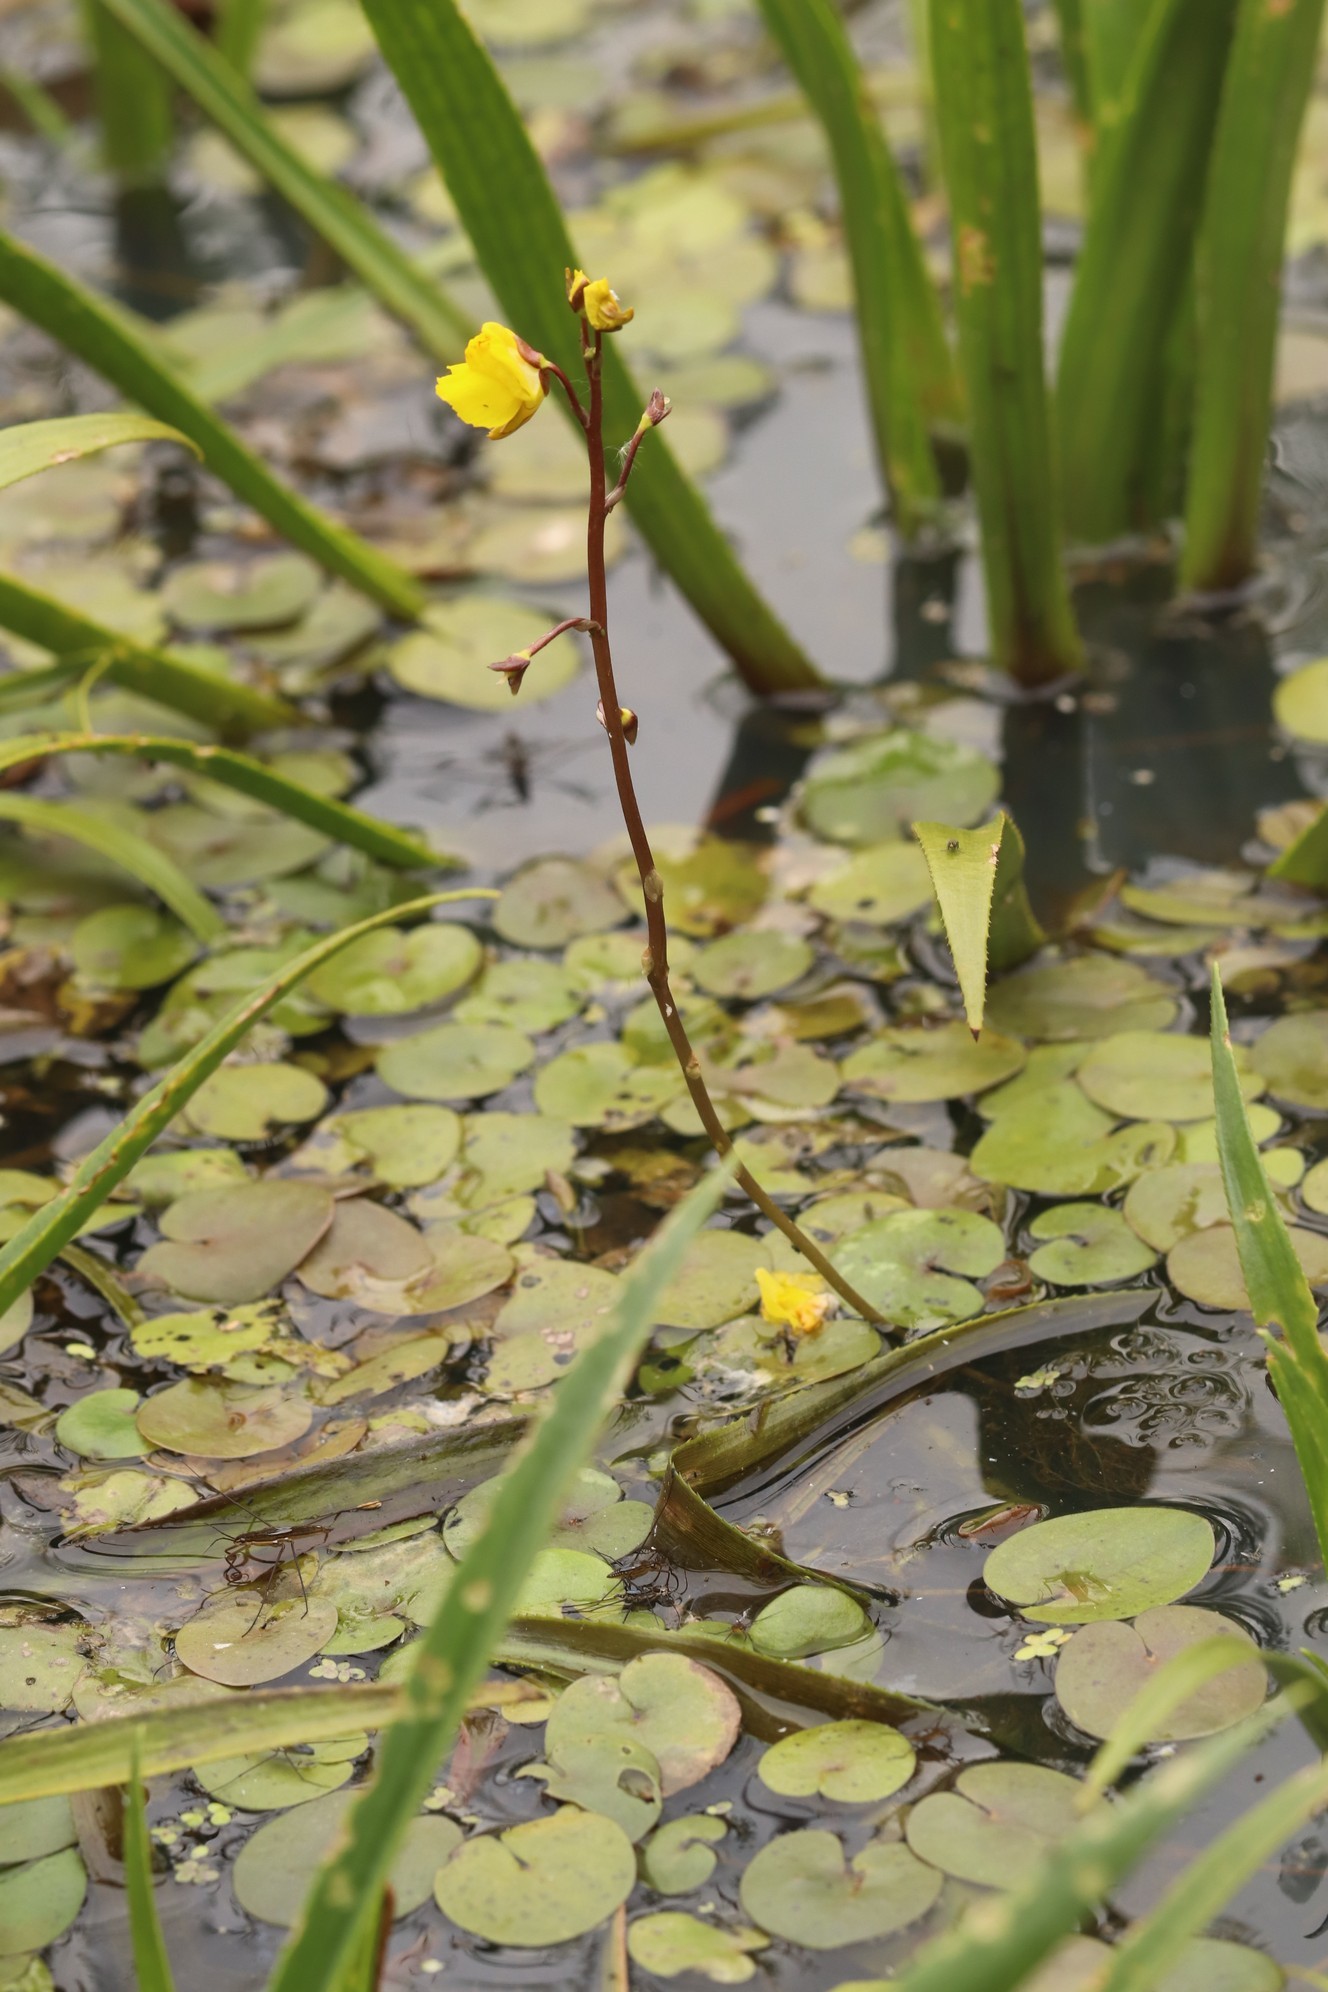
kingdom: Plantae
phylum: Tracheophyta
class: Magnoliopsida
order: Lamiales
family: Lentibulariaceae
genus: Utricularia
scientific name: Utricularia vulgaris
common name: Greater bladderwort
